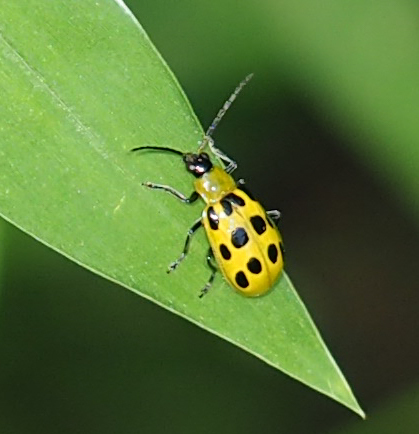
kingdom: Animalia
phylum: Arthropoda
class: Insecta
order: Coleoptera
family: Chrysomelidae
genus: Diabrotica
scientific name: Diabrotica undecimpunctata
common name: Spotted cucumber beetle
